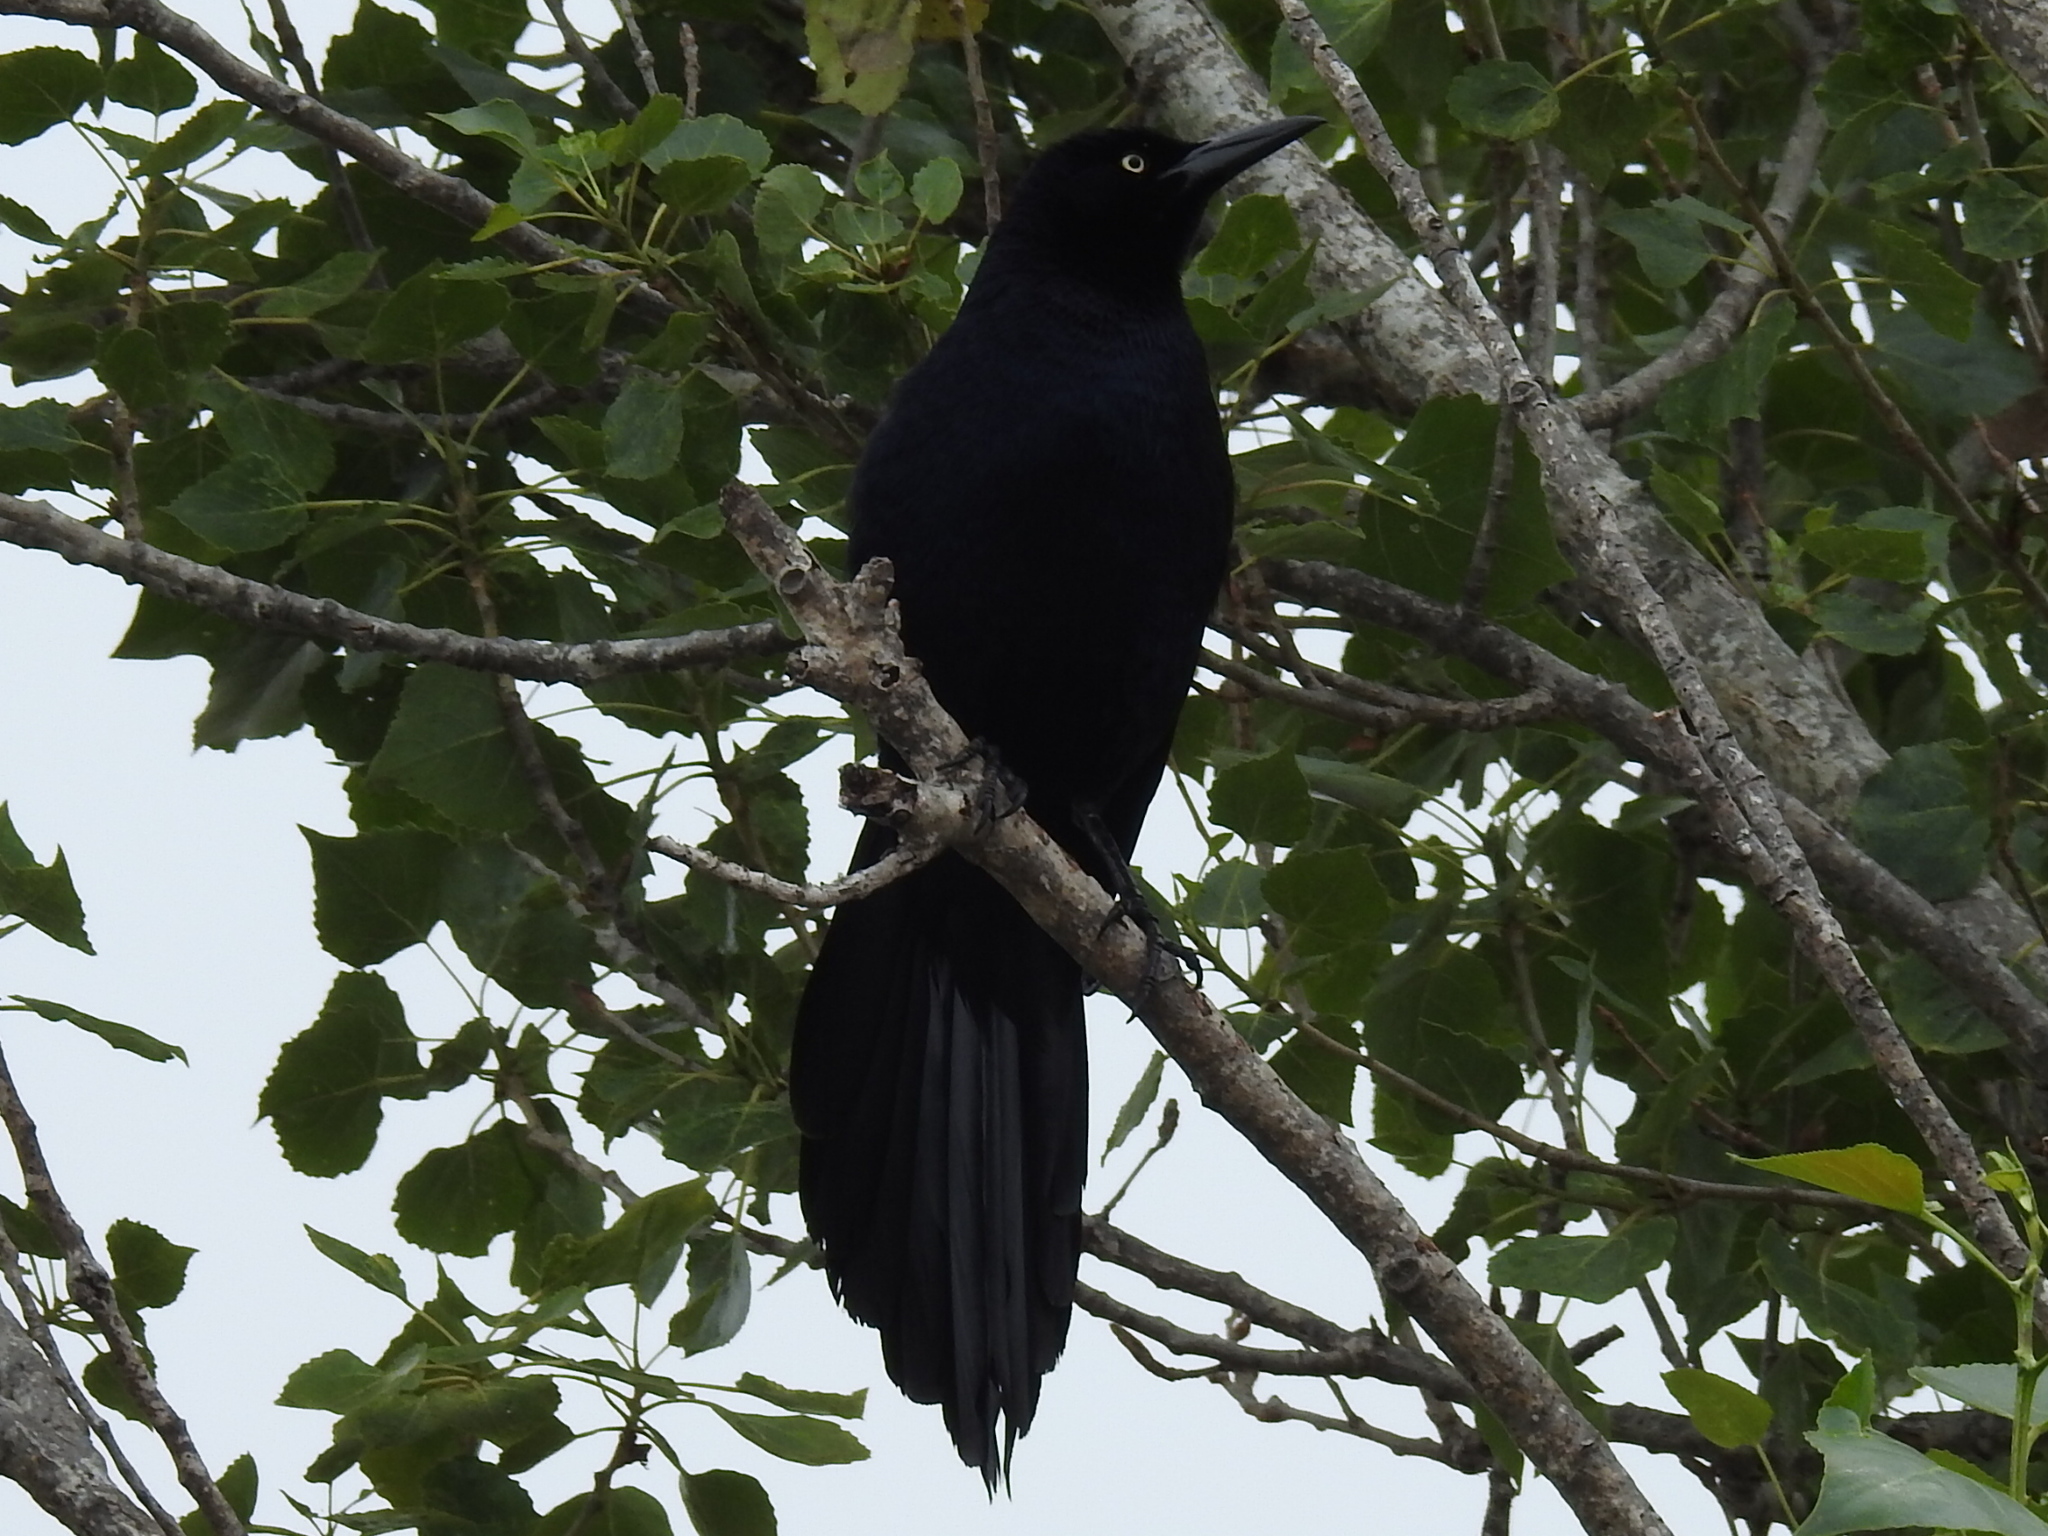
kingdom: Animalia
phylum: Chordata
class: Aves
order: Passeriformes
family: Icteridae
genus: Quiscalus
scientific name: Quiscalus mexicanus
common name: Great-tailed grackle
